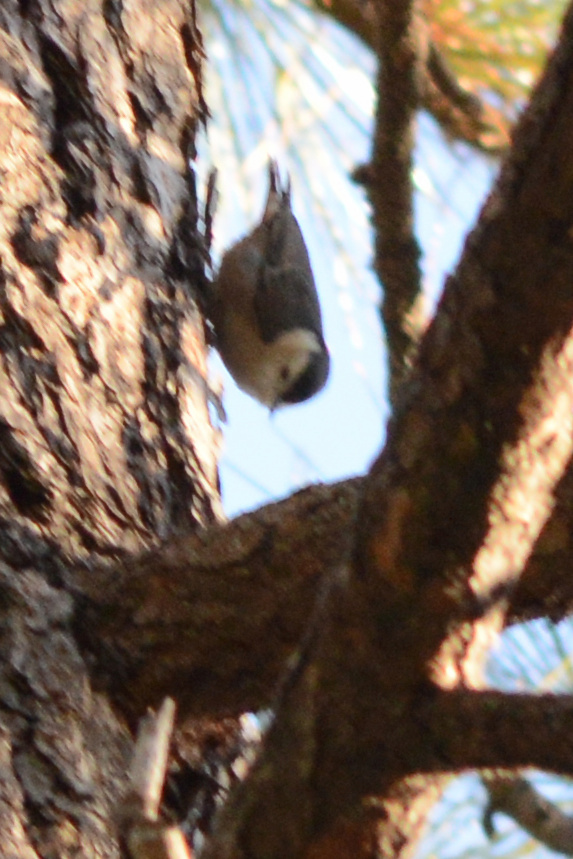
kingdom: Animalia
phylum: Chordata
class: Aves
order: Passeriformes
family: Sittidae
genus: Sitta
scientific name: Sitta carolinensis
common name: White-breasted nuthatch
